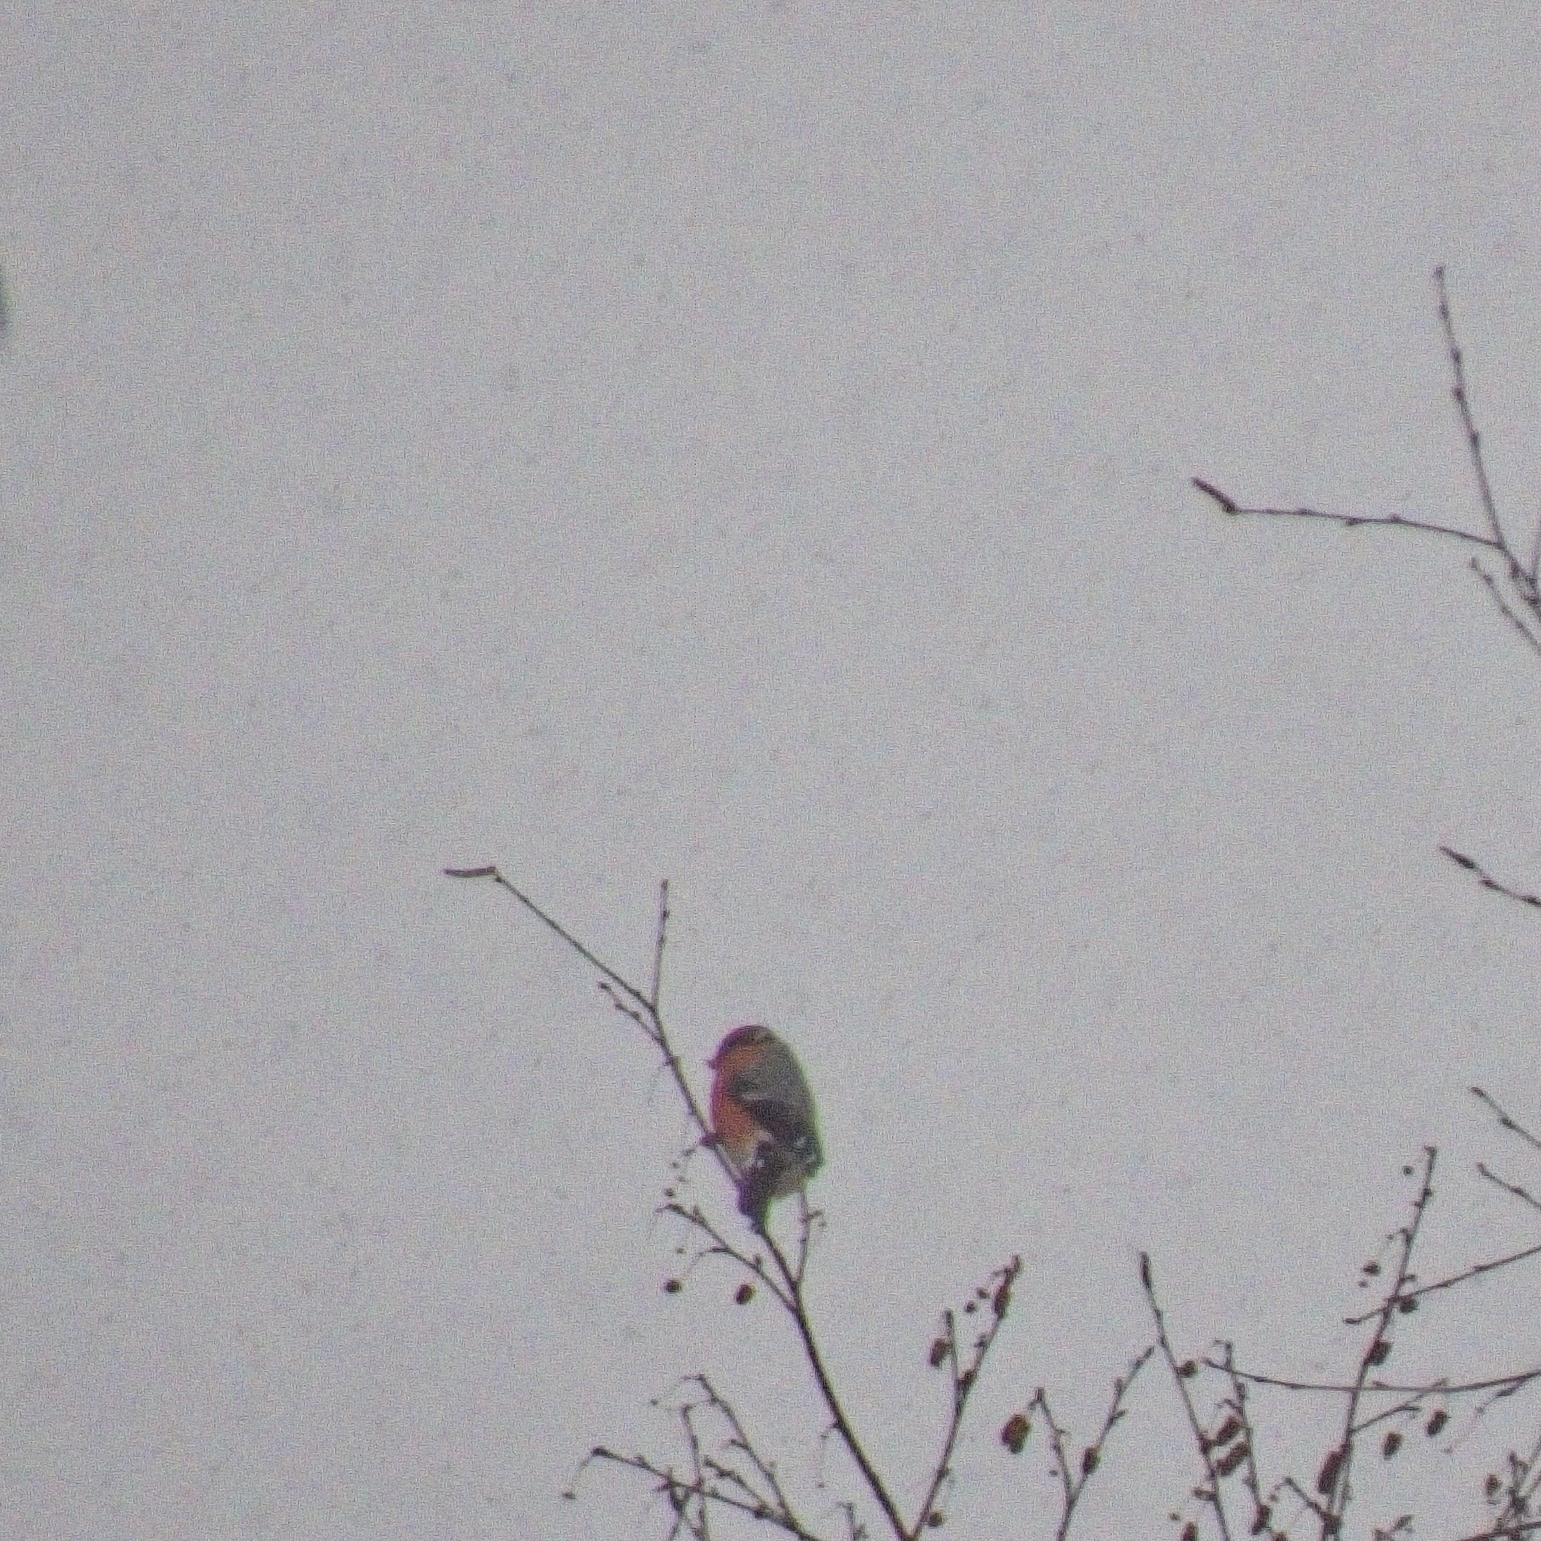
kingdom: Animalia
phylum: Chordata
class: Aves
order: Passeriformes
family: Fringillidae
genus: Pyrrhula
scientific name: Pyrrhula pyrrhula
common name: Eurasian bullfinch
